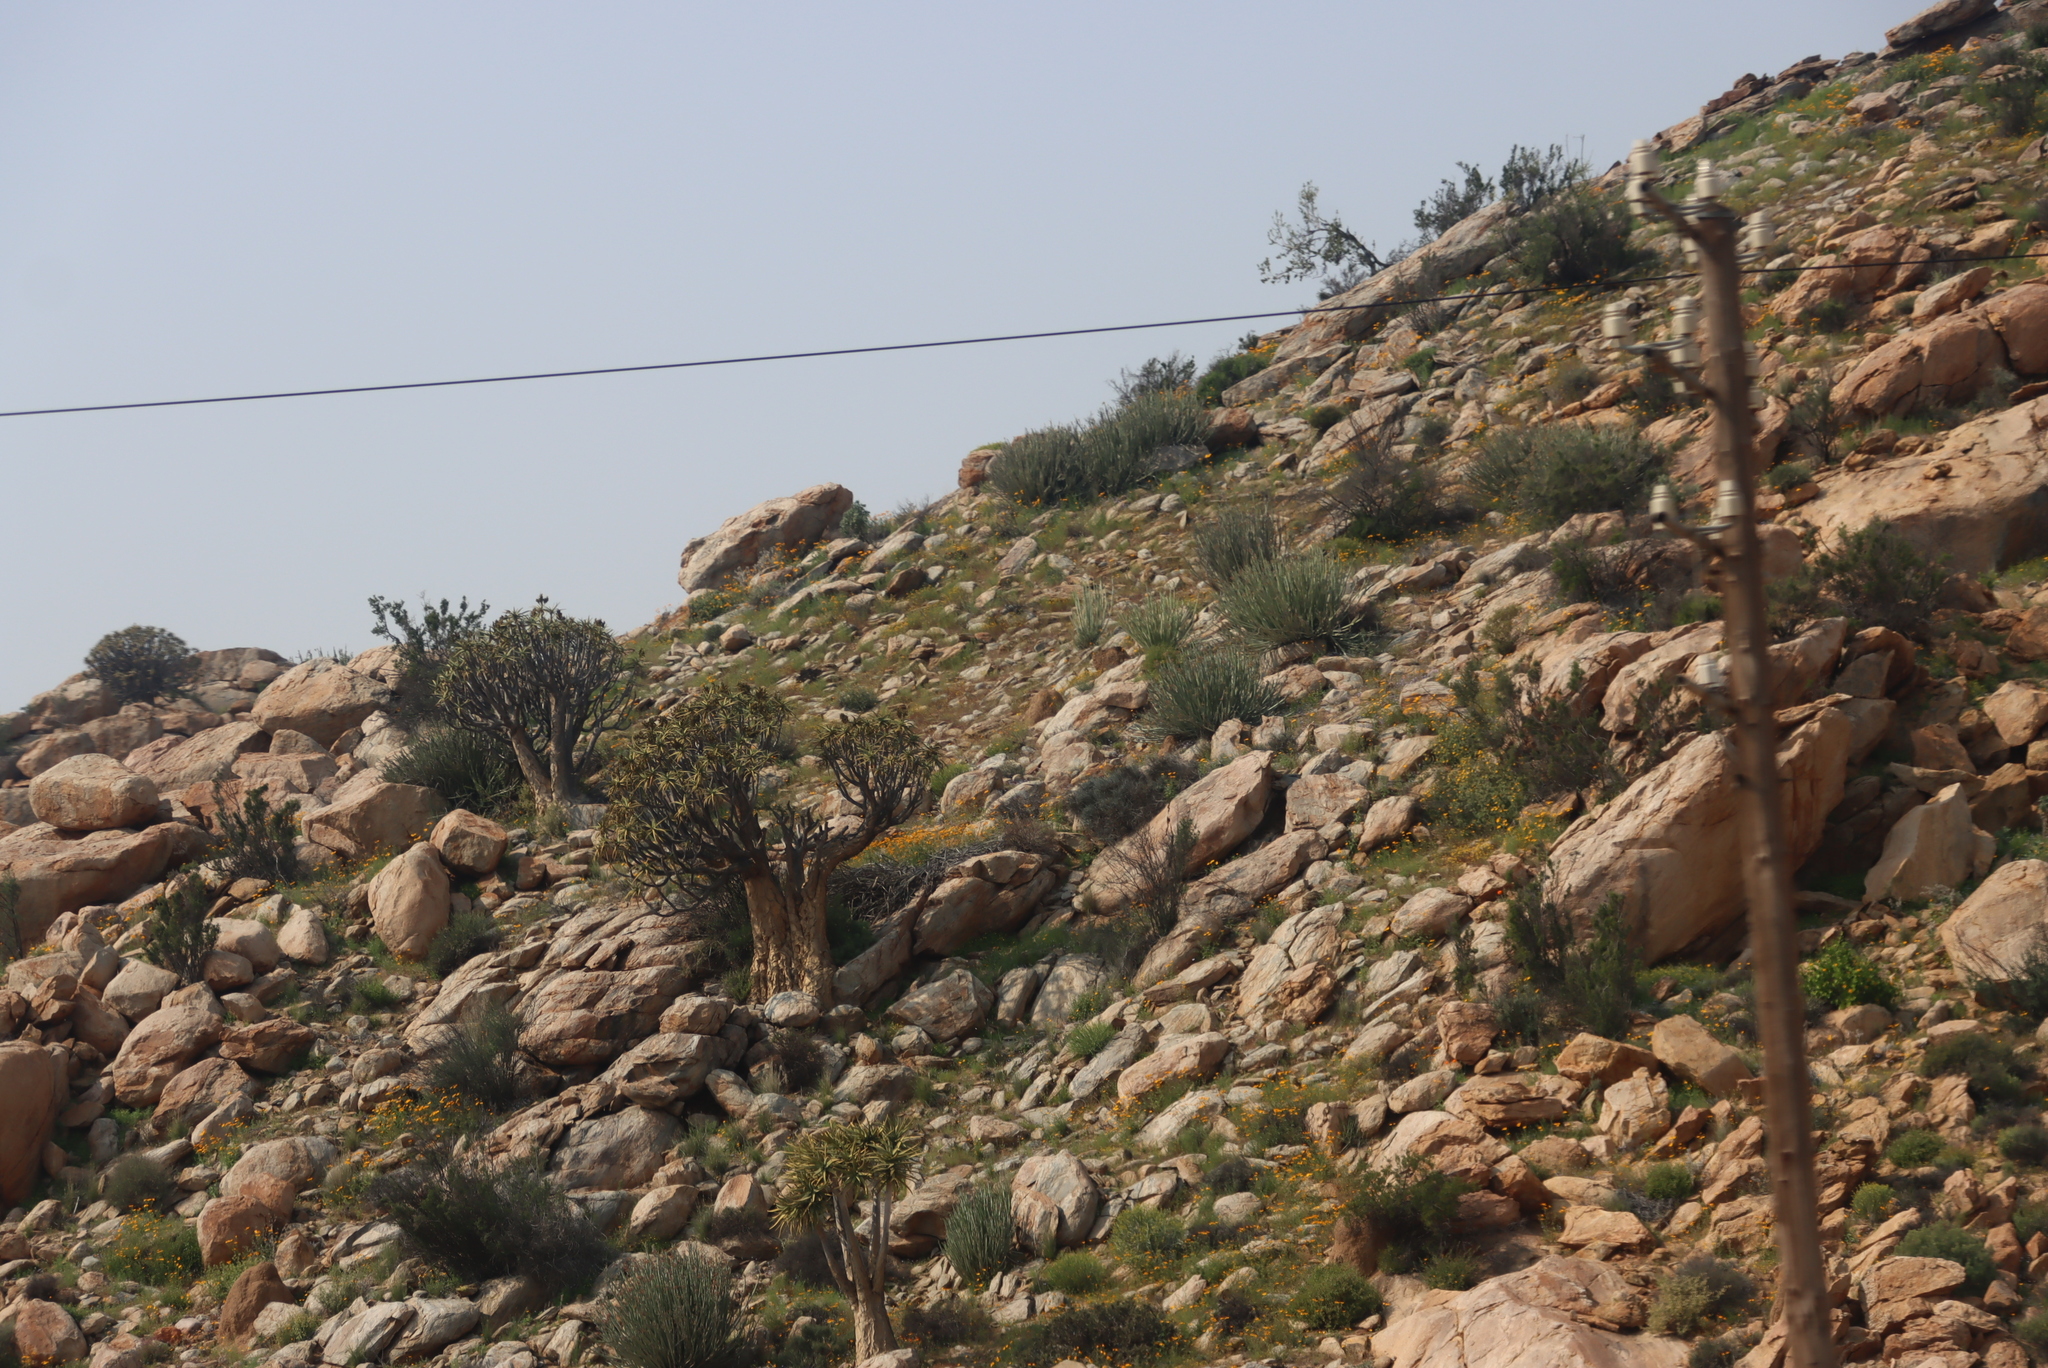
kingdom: Plantae
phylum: Tracheophyta
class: Liliopsida
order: Asparagales
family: Asphodelaceae
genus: Aloidendron
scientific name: Aloidendron dichotomum
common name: Quiver tree
